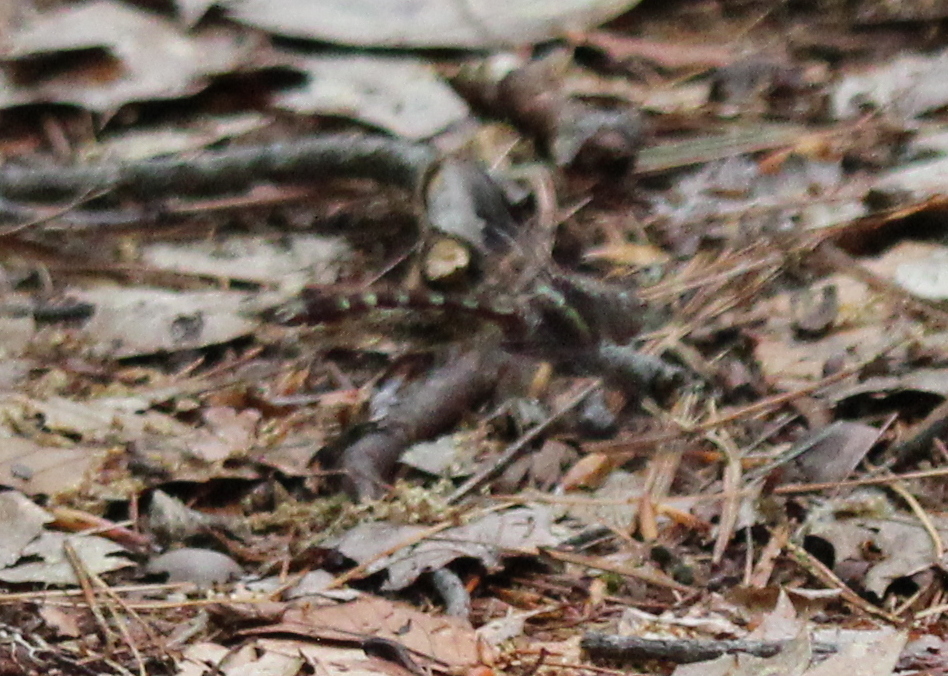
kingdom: Animalia
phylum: Arthropoda
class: Insecta
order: Odonata
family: Macromiidae
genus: Didymops
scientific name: Didymops transversa
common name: Stream cruiser
